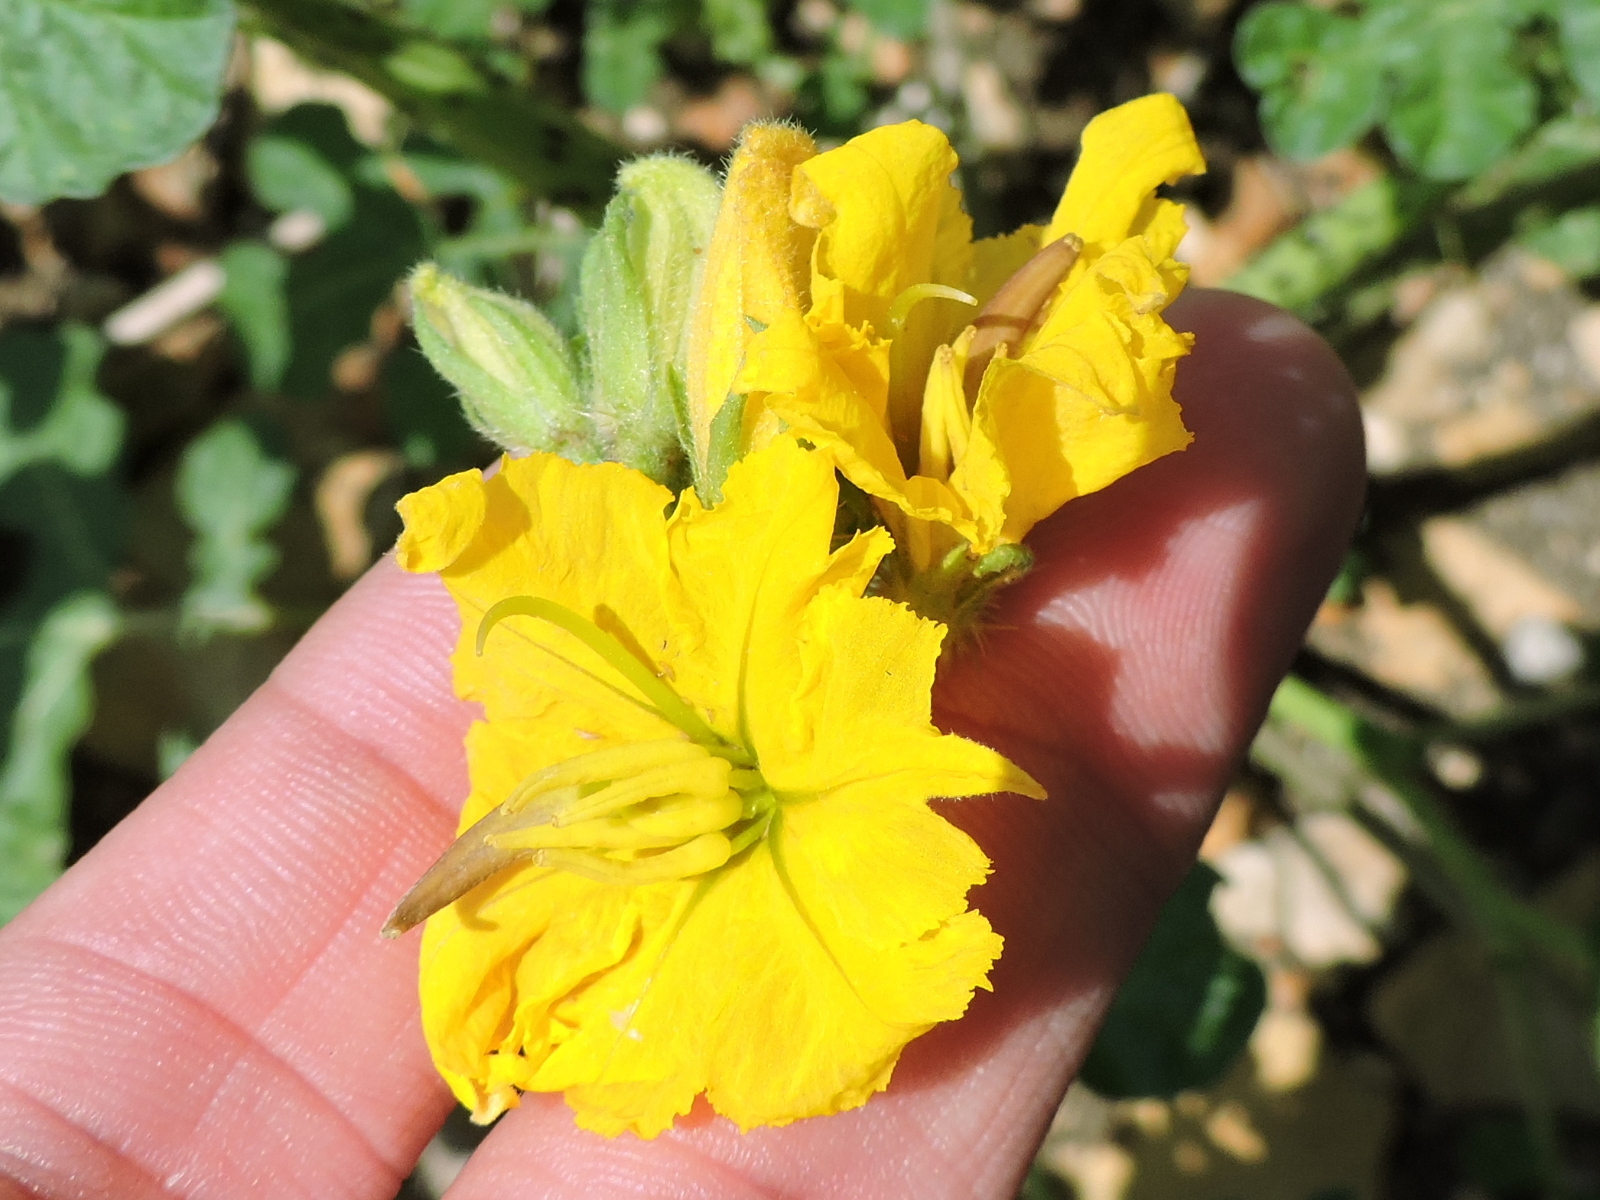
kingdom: Plantae
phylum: Tracheophyta
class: Magnoliopsida
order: Solanales
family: Solanaceae
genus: Solanum
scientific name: Solanum angustifolium
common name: Buffalobur nightshade
